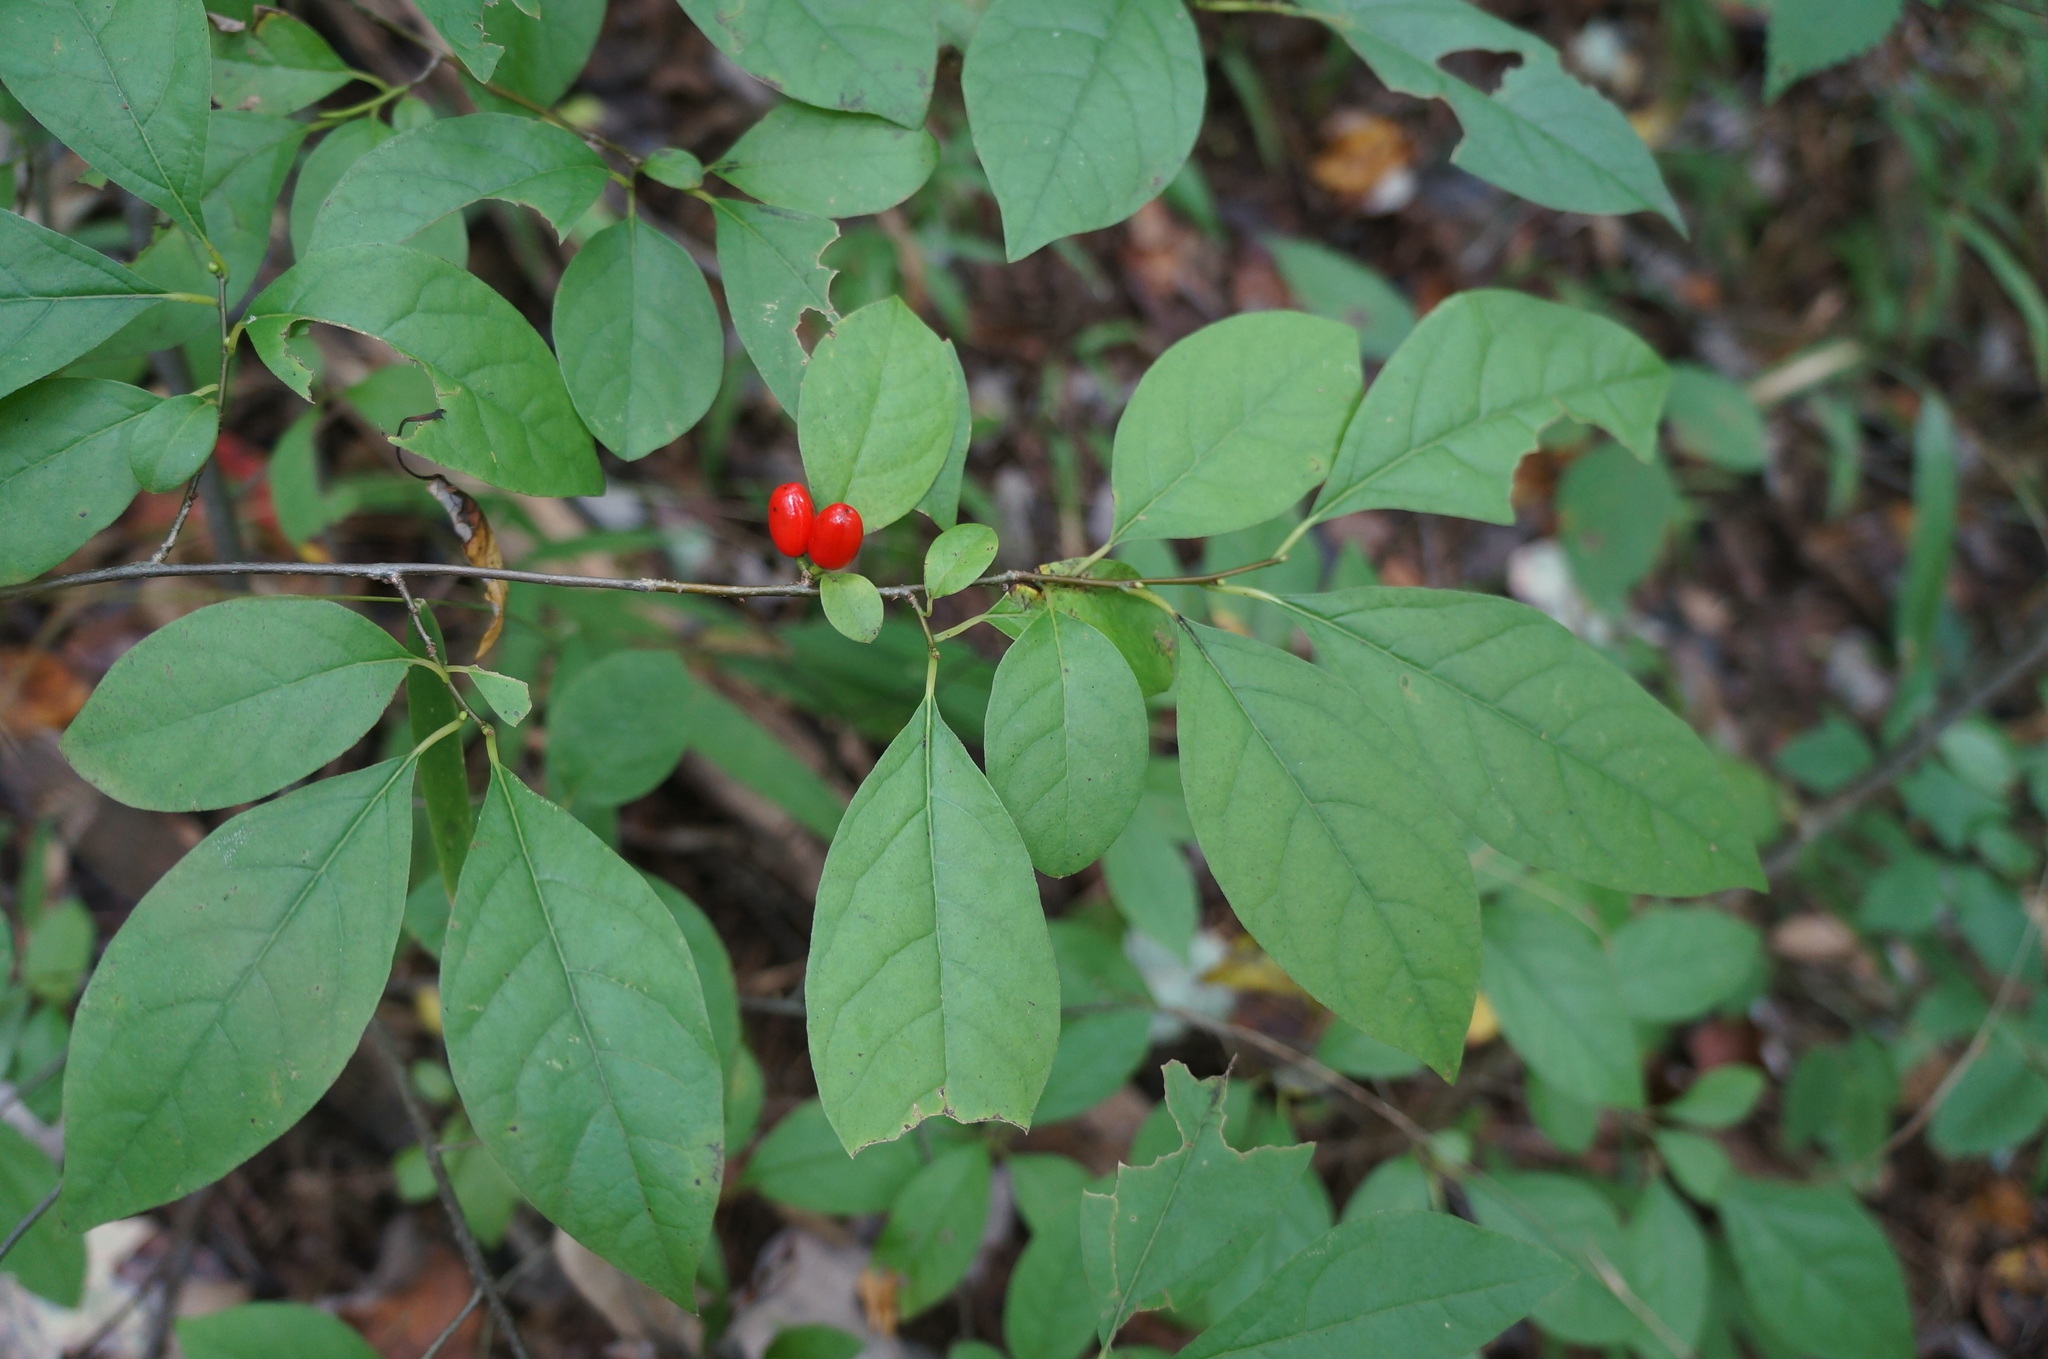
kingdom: Plantae
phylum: Tracheophyta
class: Magnoliopsida
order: Laurales
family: Lauraceae
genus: Lindera
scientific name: Lindera benzoin
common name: Spicebush
